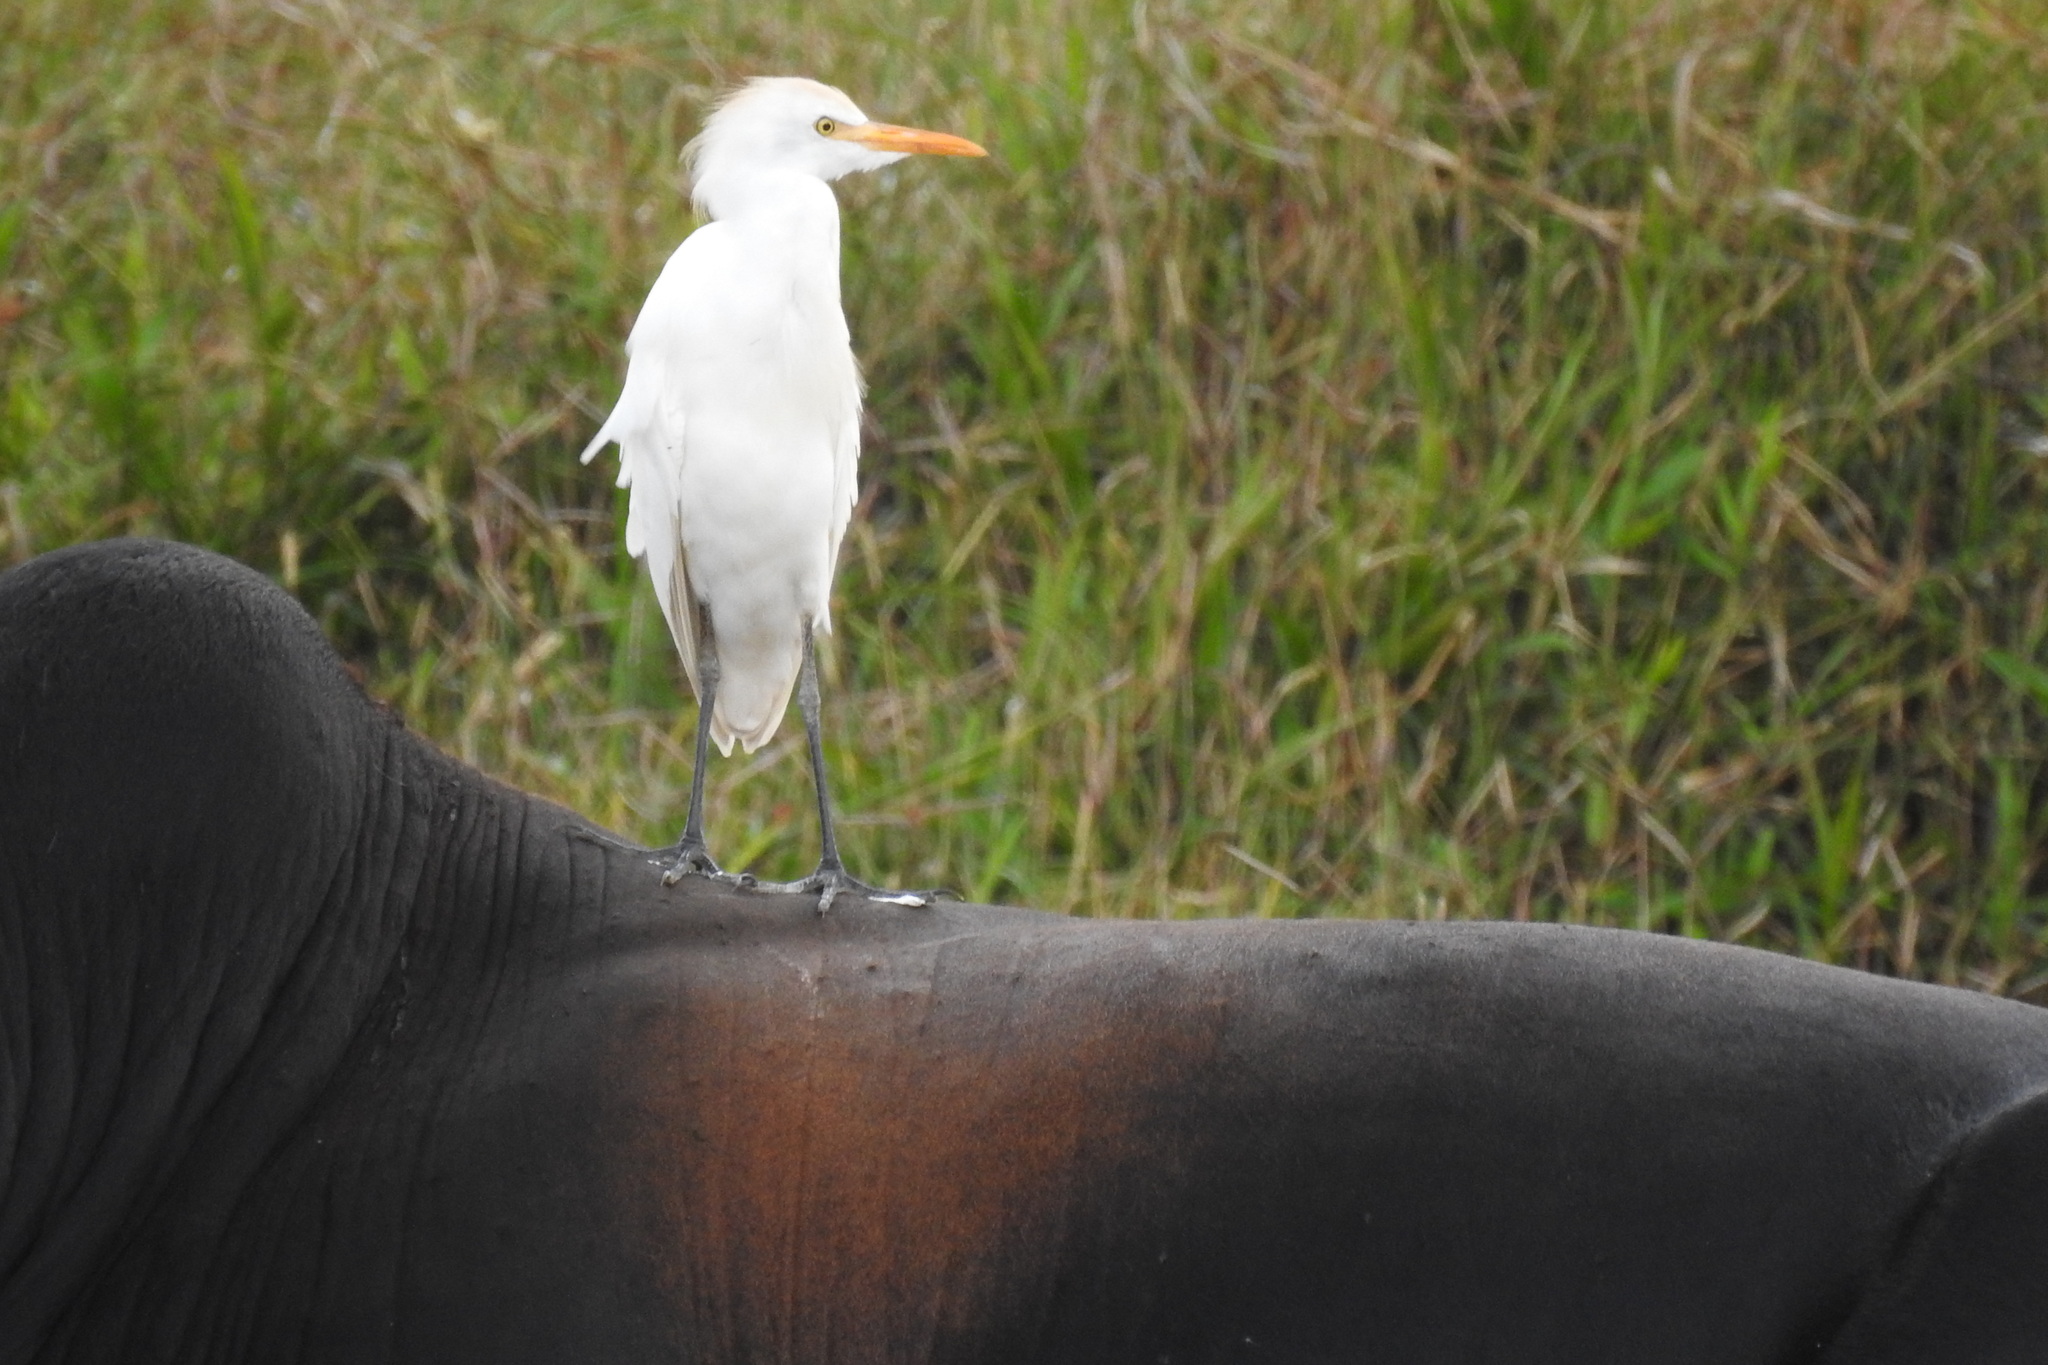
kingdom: Animalia
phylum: Chordata
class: Aves
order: Pelecaniformes
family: Ardeidae
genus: Bubulcus
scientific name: Bubulcus ibis
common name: Cattle egret
